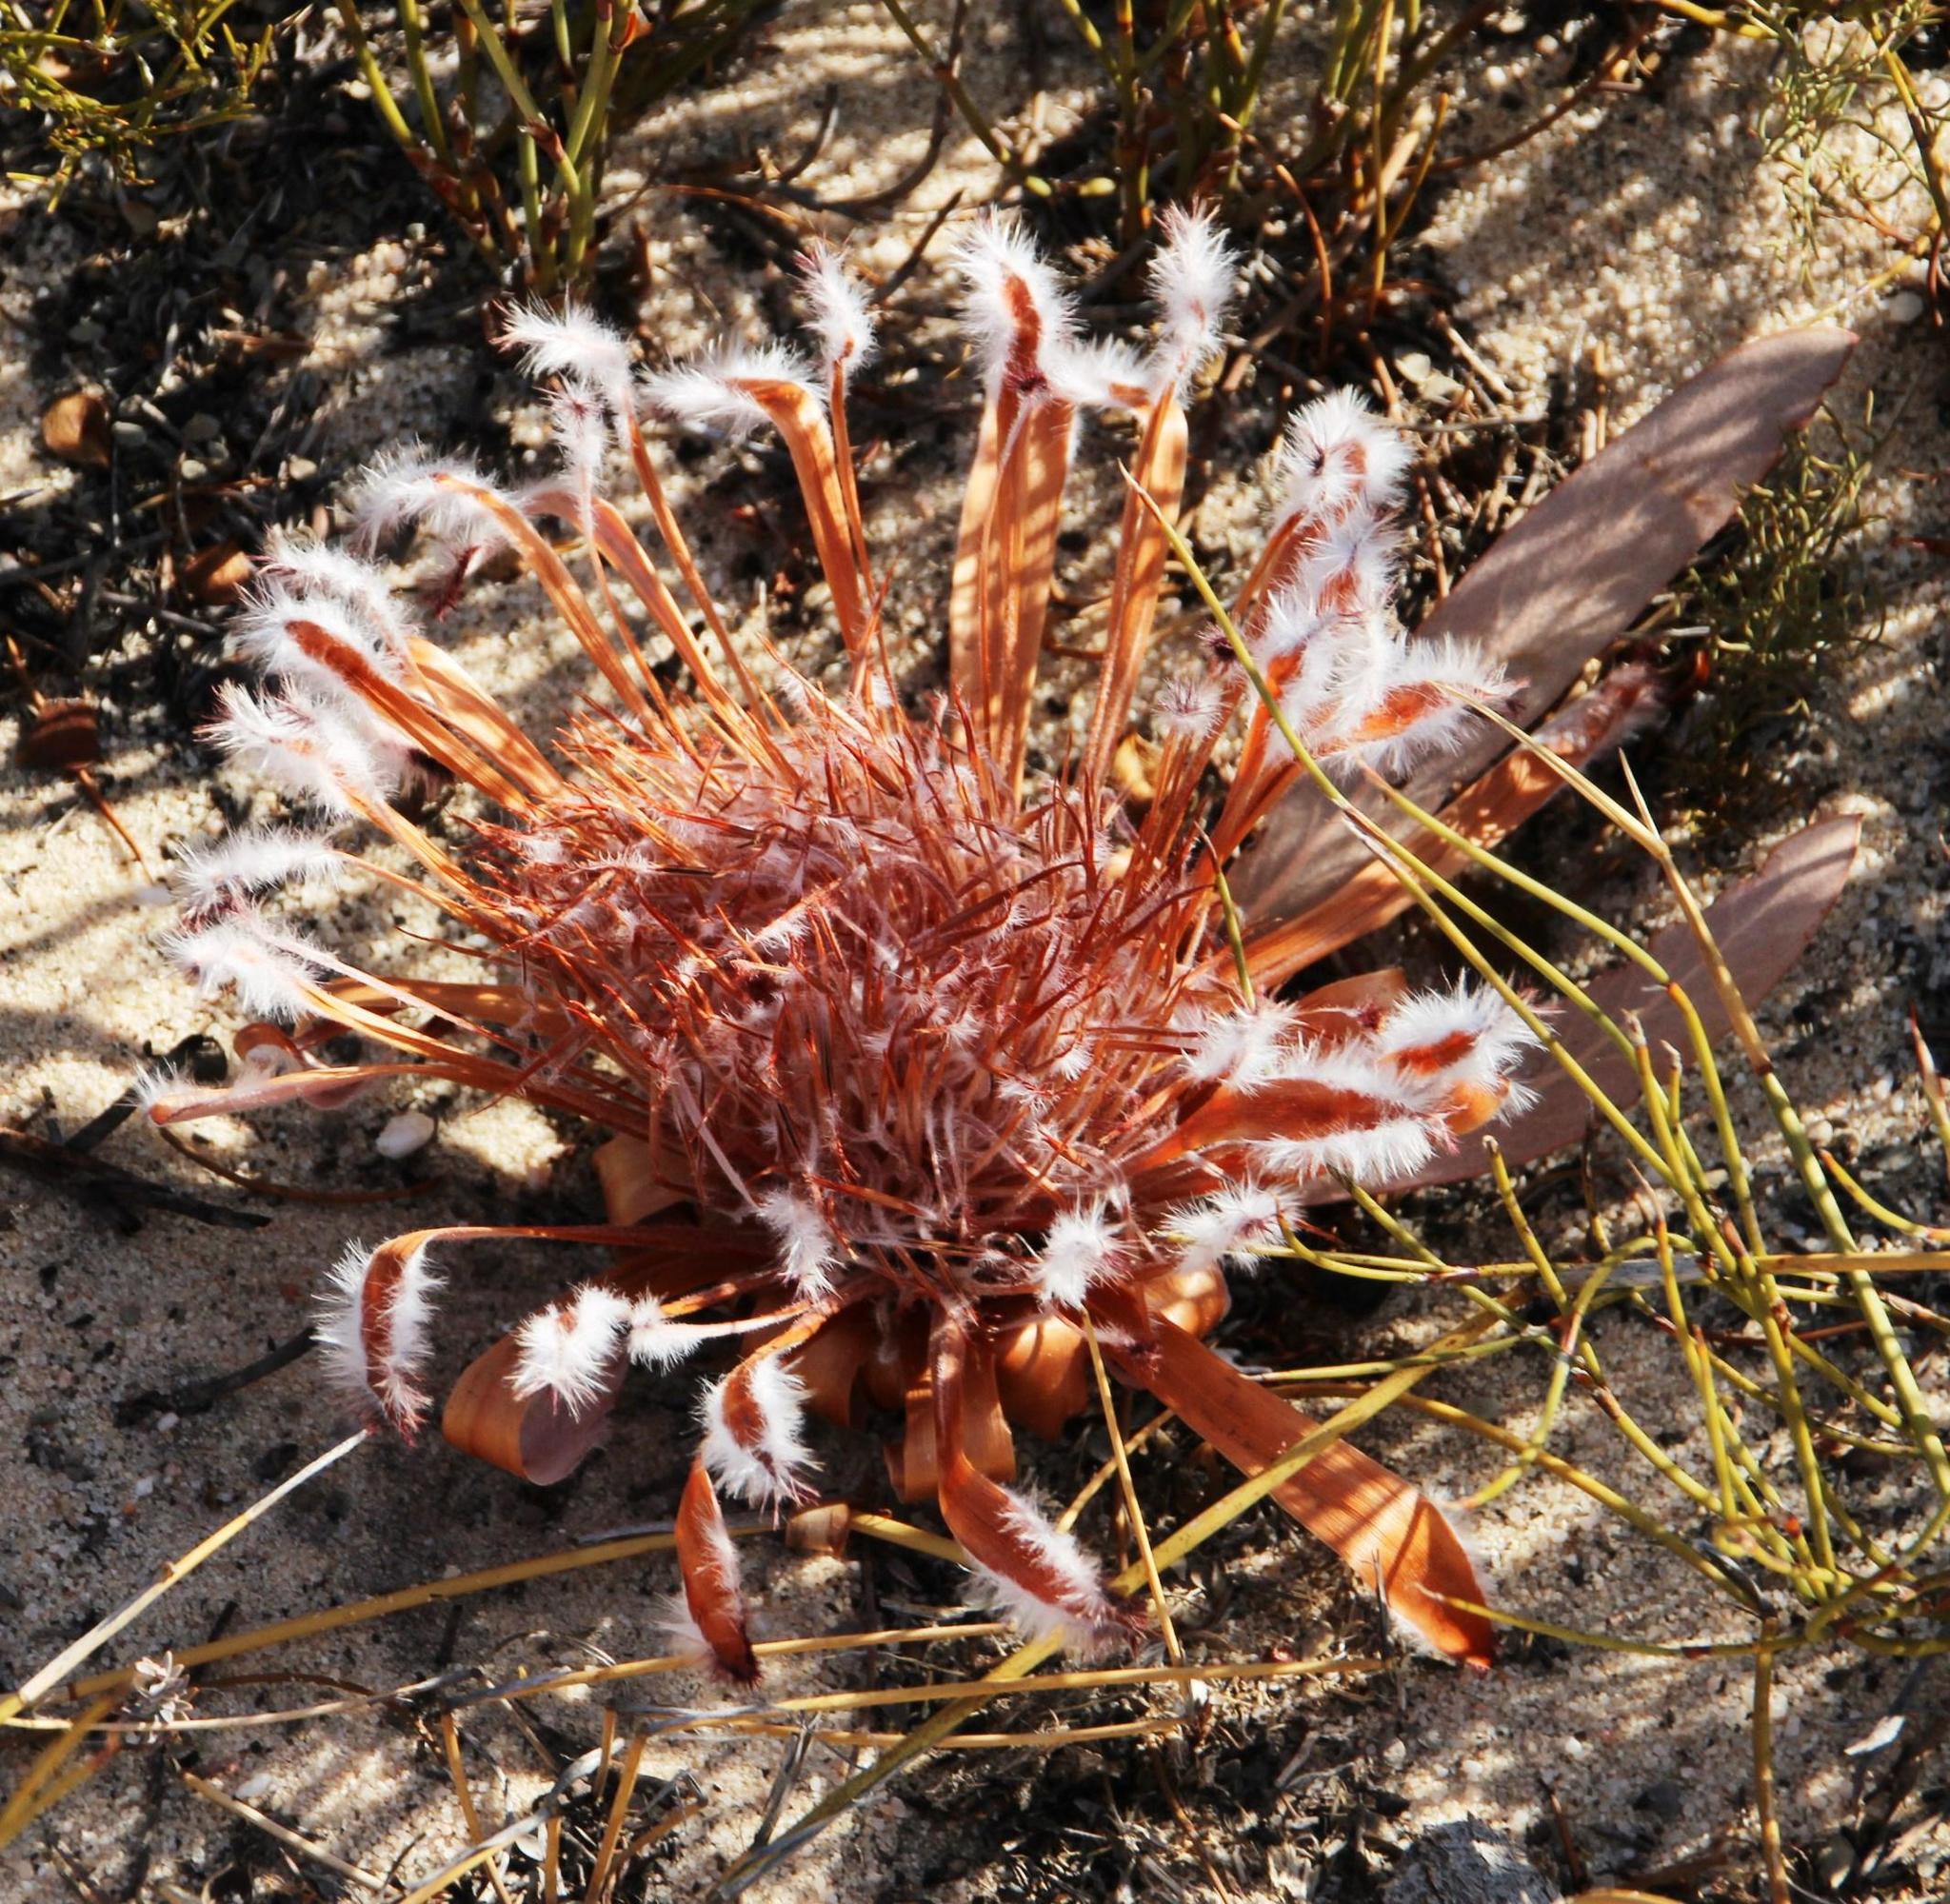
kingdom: Plantae
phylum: Tracheophyta
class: Magnoliopsida
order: Proteales
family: Proteaceae
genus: Protea
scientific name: Protea laurifolia
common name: Grey-leaf sugarbsh
